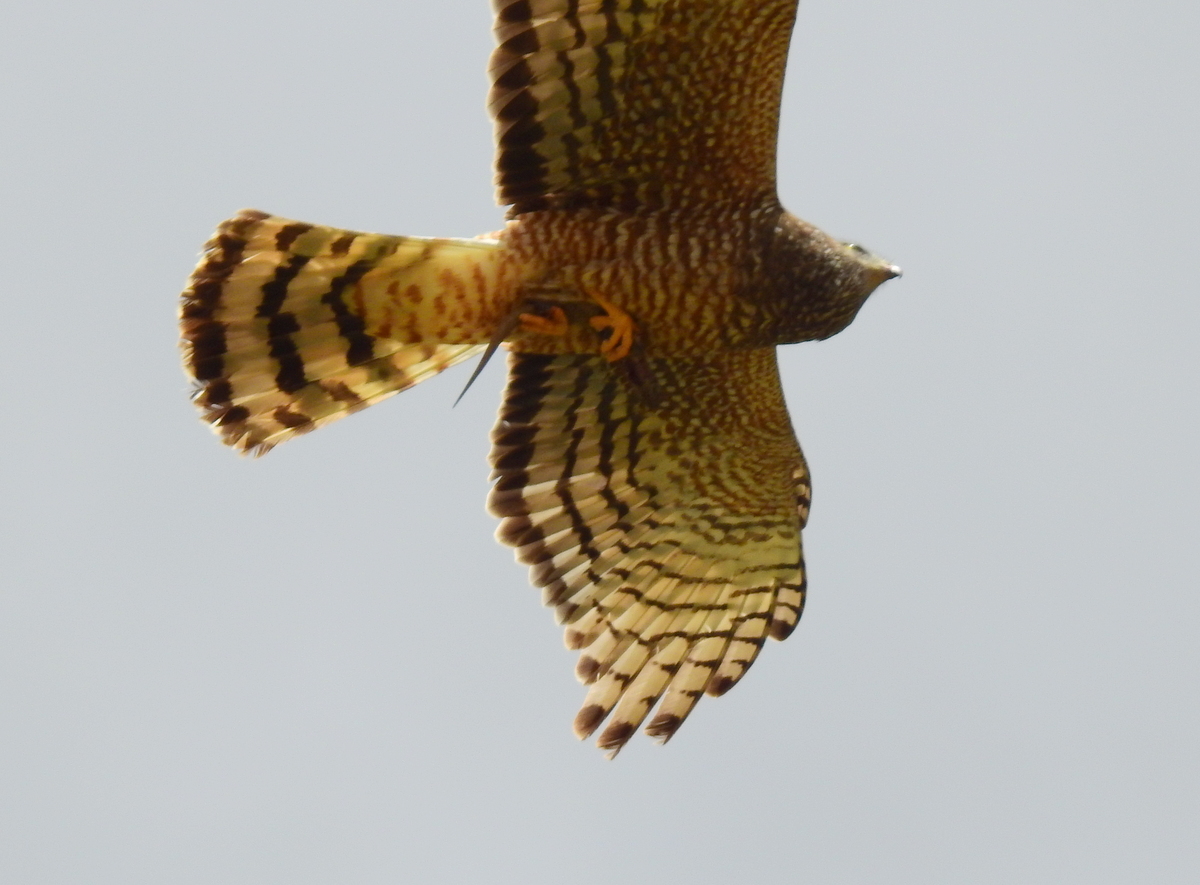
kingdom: Animalia
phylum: Chordata
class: Aves
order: Accipitriformes
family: Accipitridae
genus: Circus
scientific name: Circus cinereus
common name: Cinereous harrier
